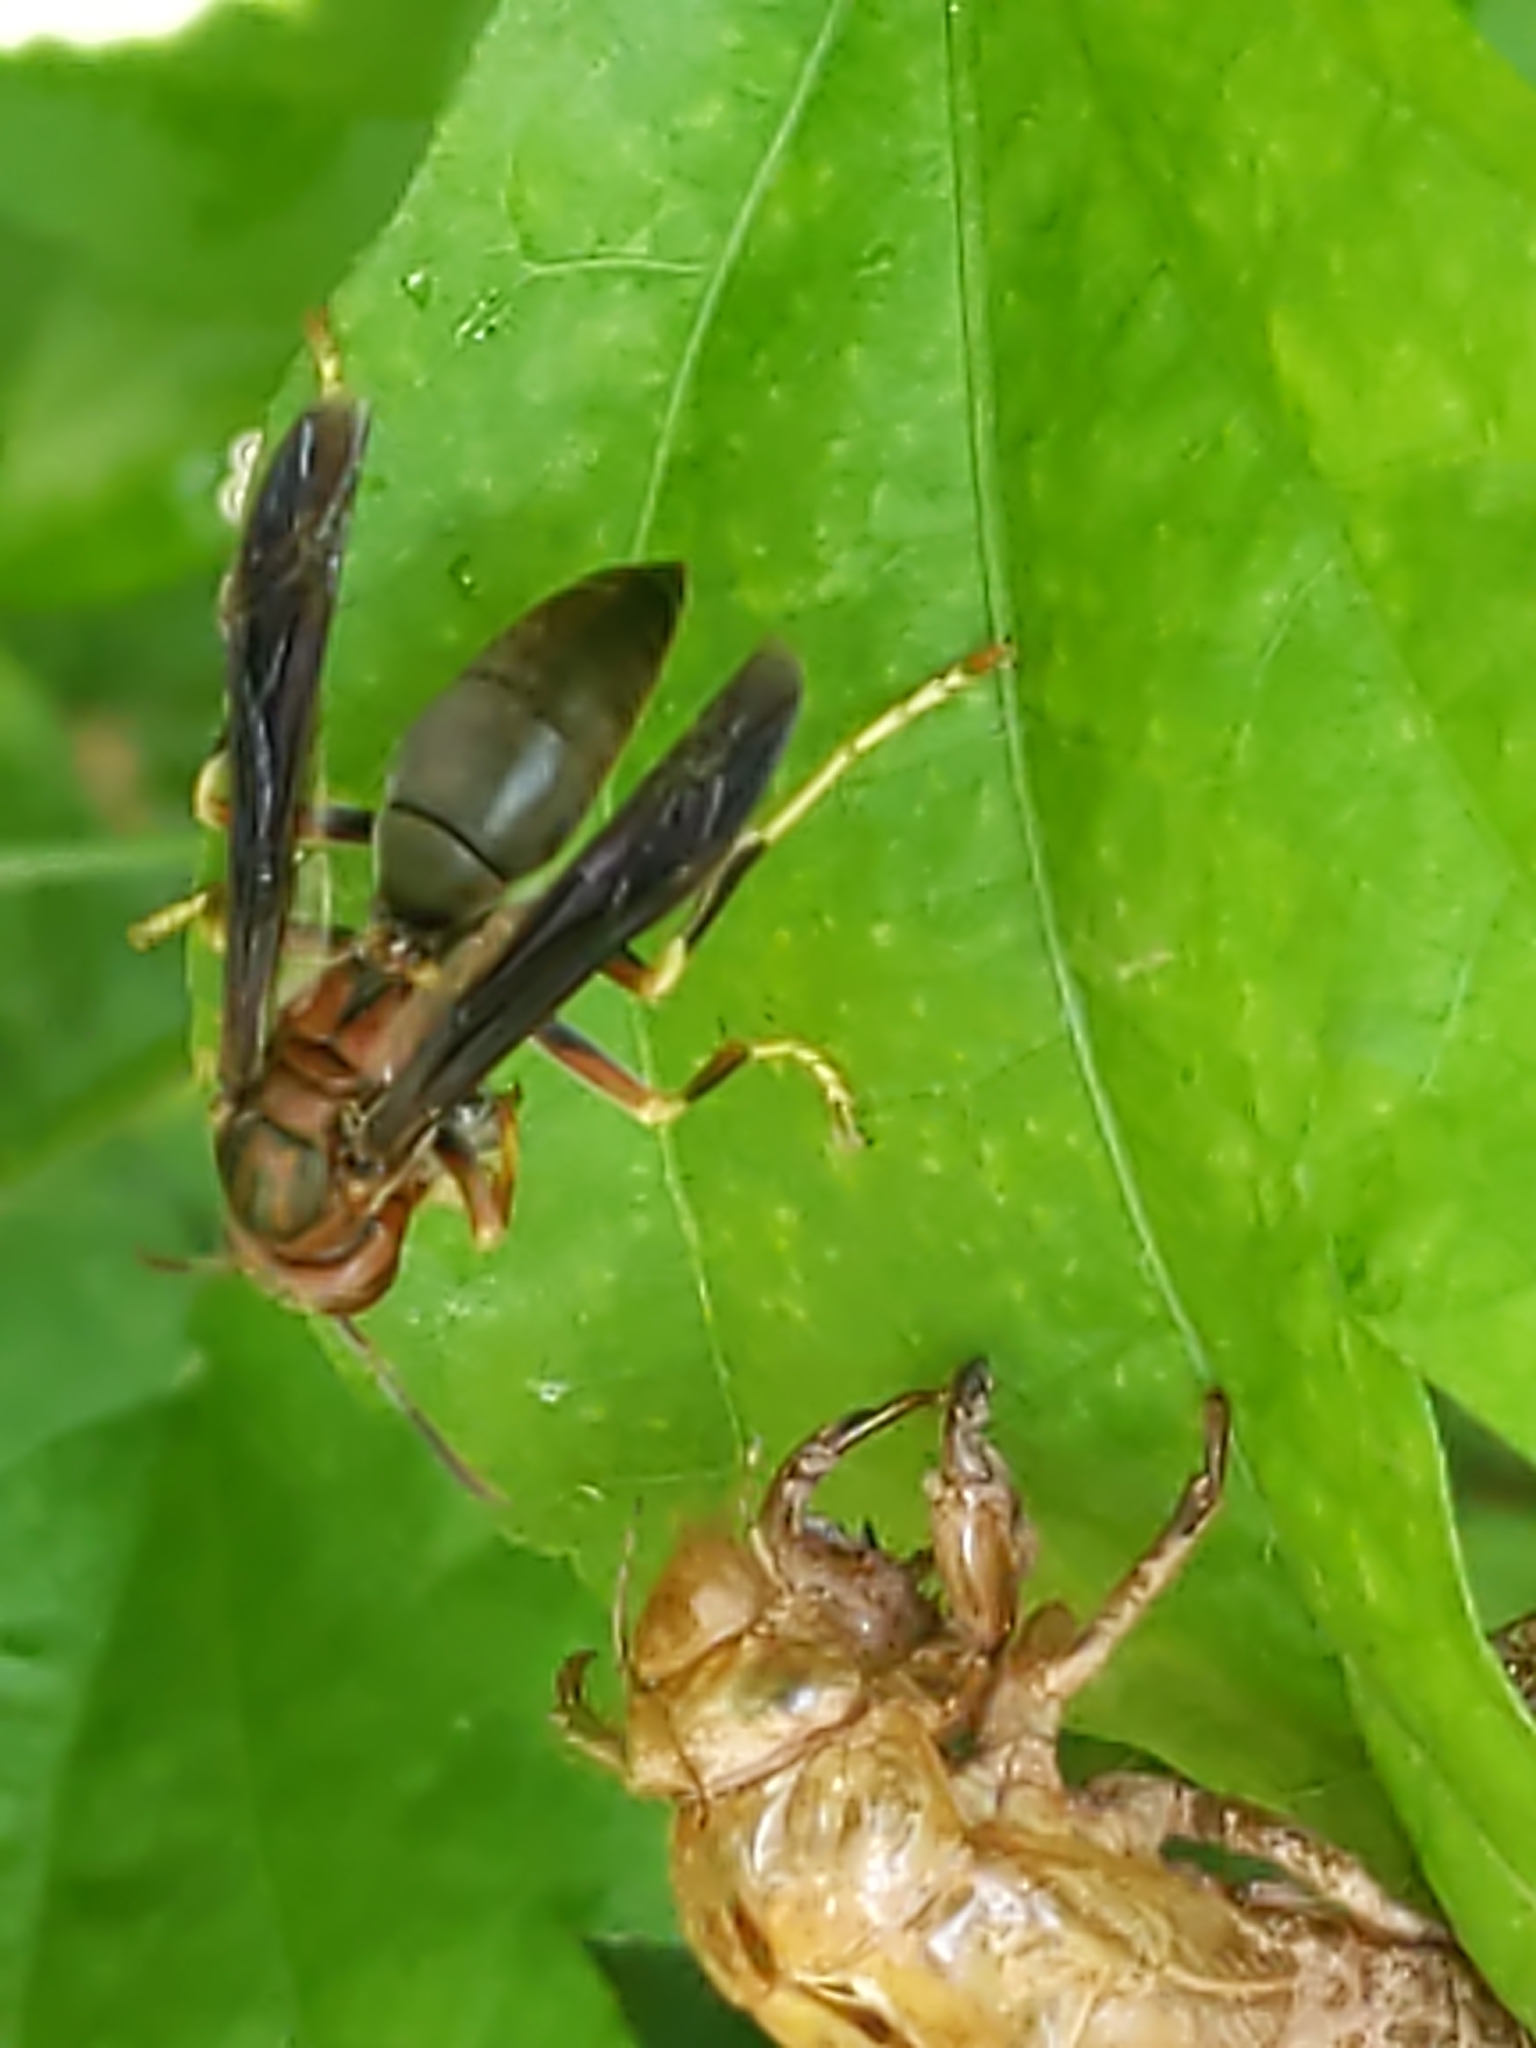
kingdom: Animalia
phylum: Arthropoda
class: Insecta
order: Hymenoptera
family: Eumenidae
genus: Polistes
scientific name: Polistes metricus
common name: Metric paper wasp
